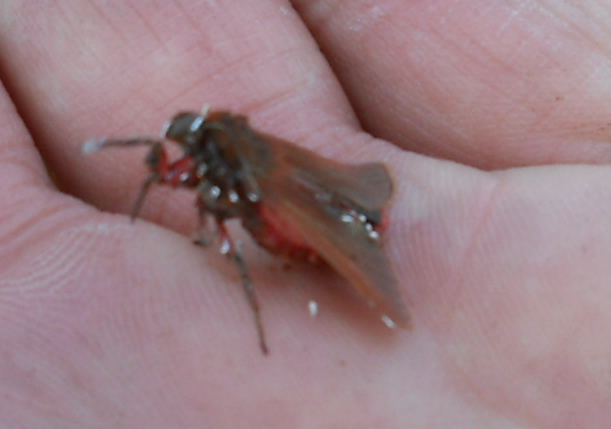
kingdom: Animalia
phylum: Arthropoda
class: Insecta
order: Lepidoptera
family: Erebidae
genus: Phragmatobia
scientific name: Phragmatobia fuliginosa
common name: Ruby tiger
